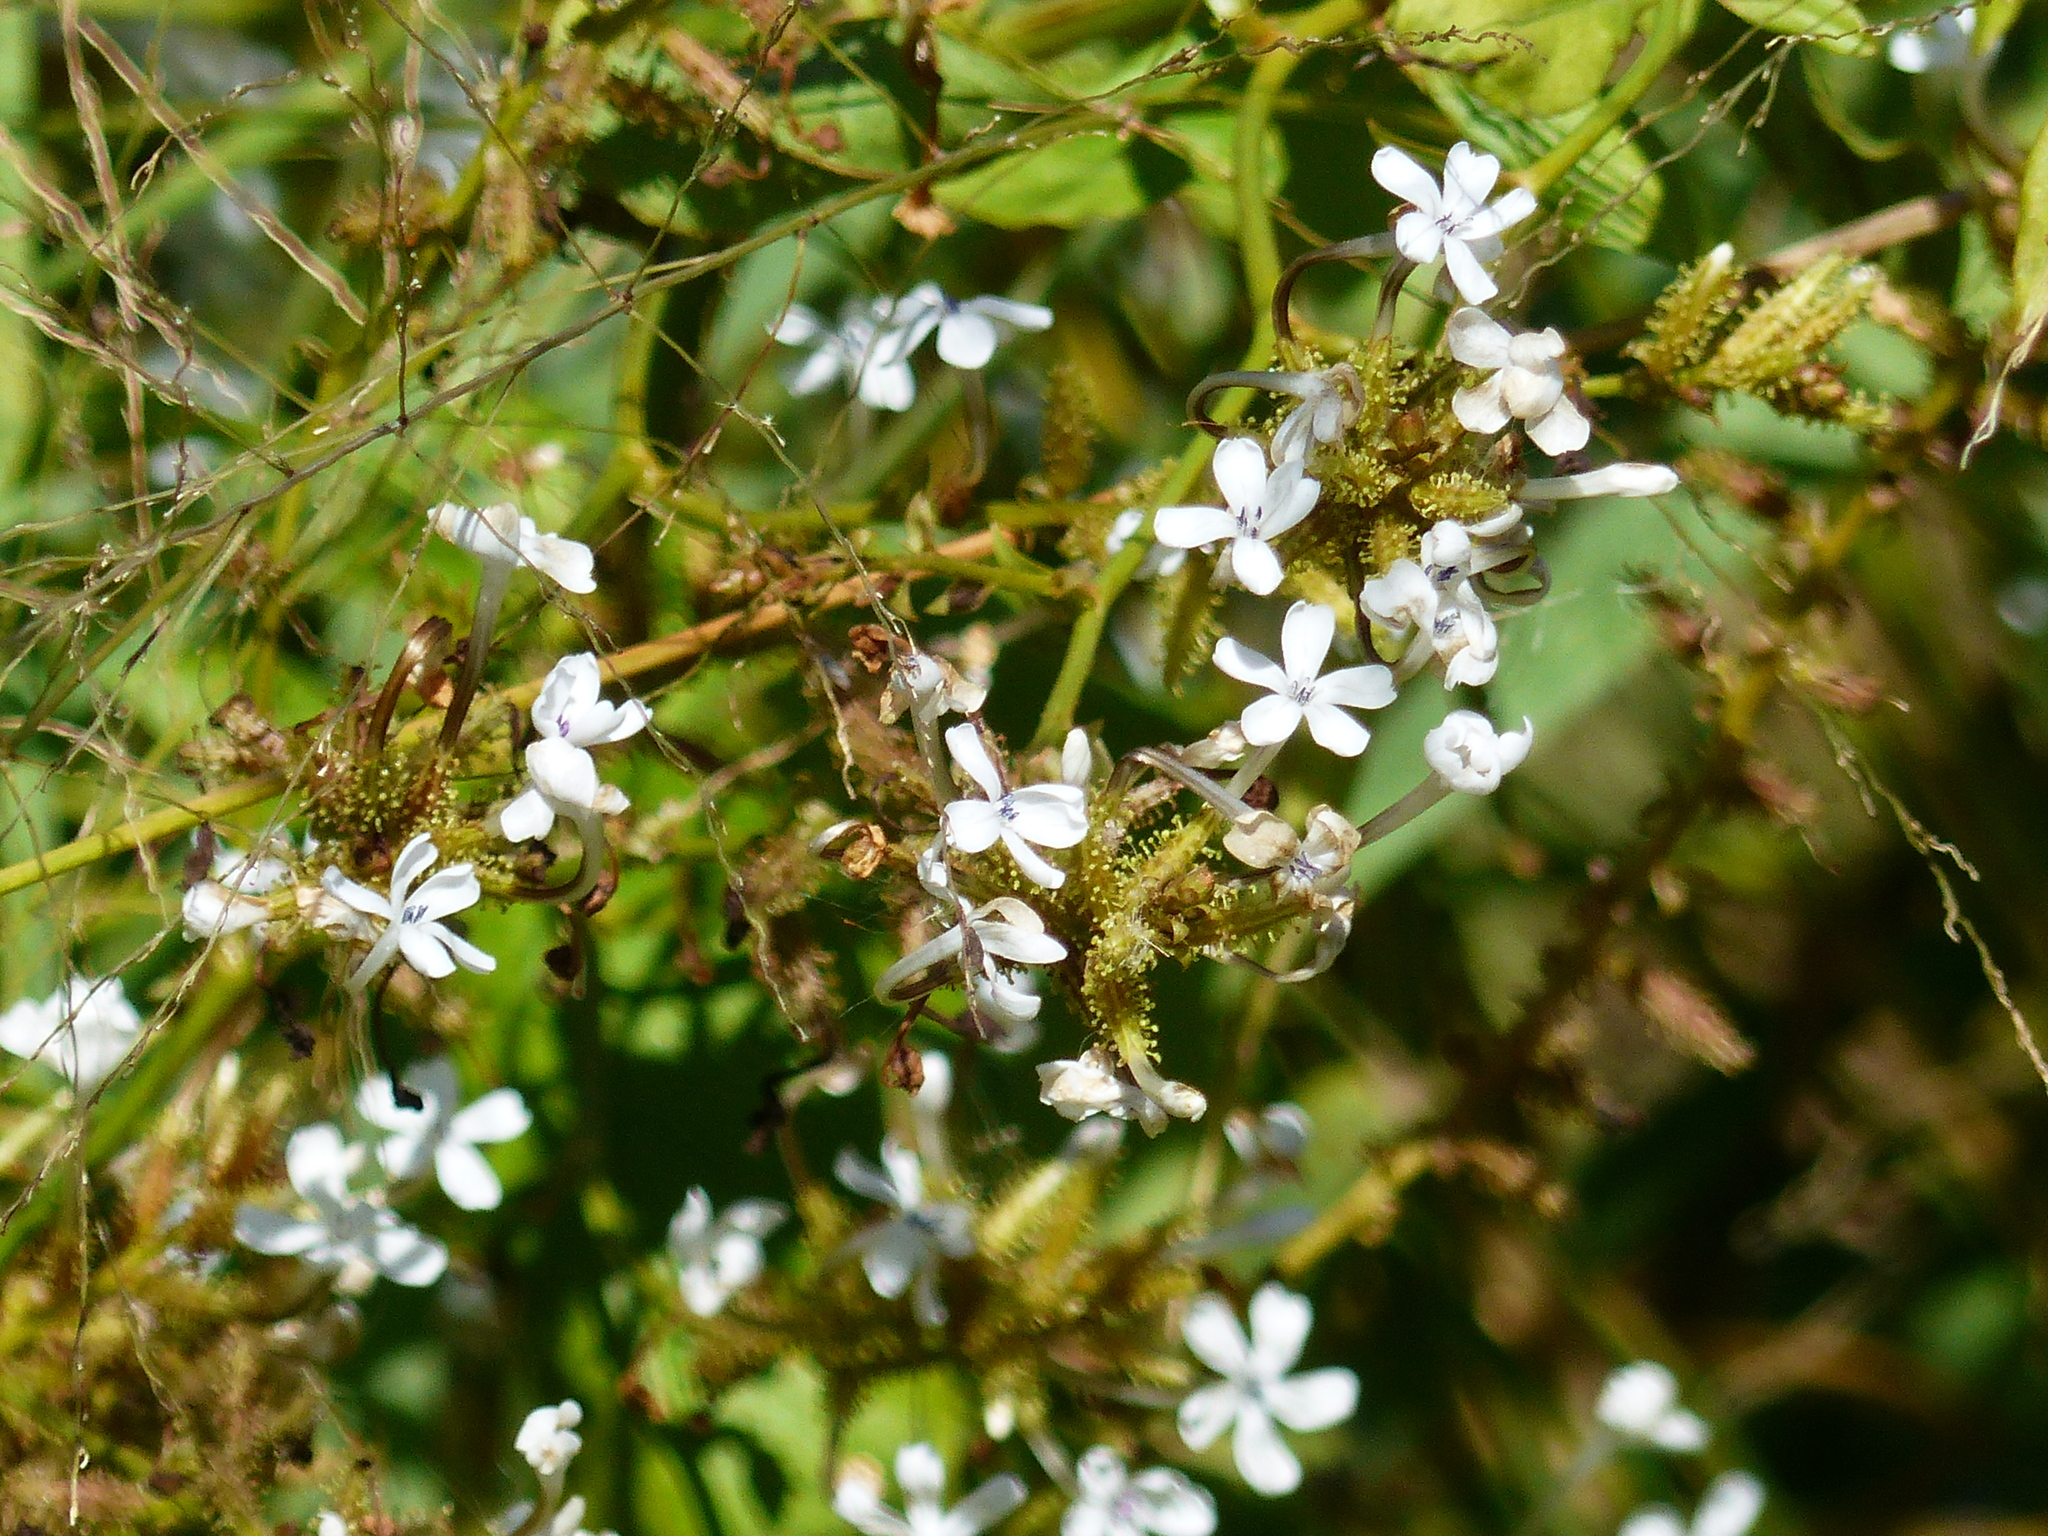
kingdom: Plantae
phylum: Tracheophyta
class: Magnoliopsida
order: Caryophyllales
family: Plumbaginaceae
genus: Plumbago
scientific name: Plumbago zeylanica
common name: Doctorbush
